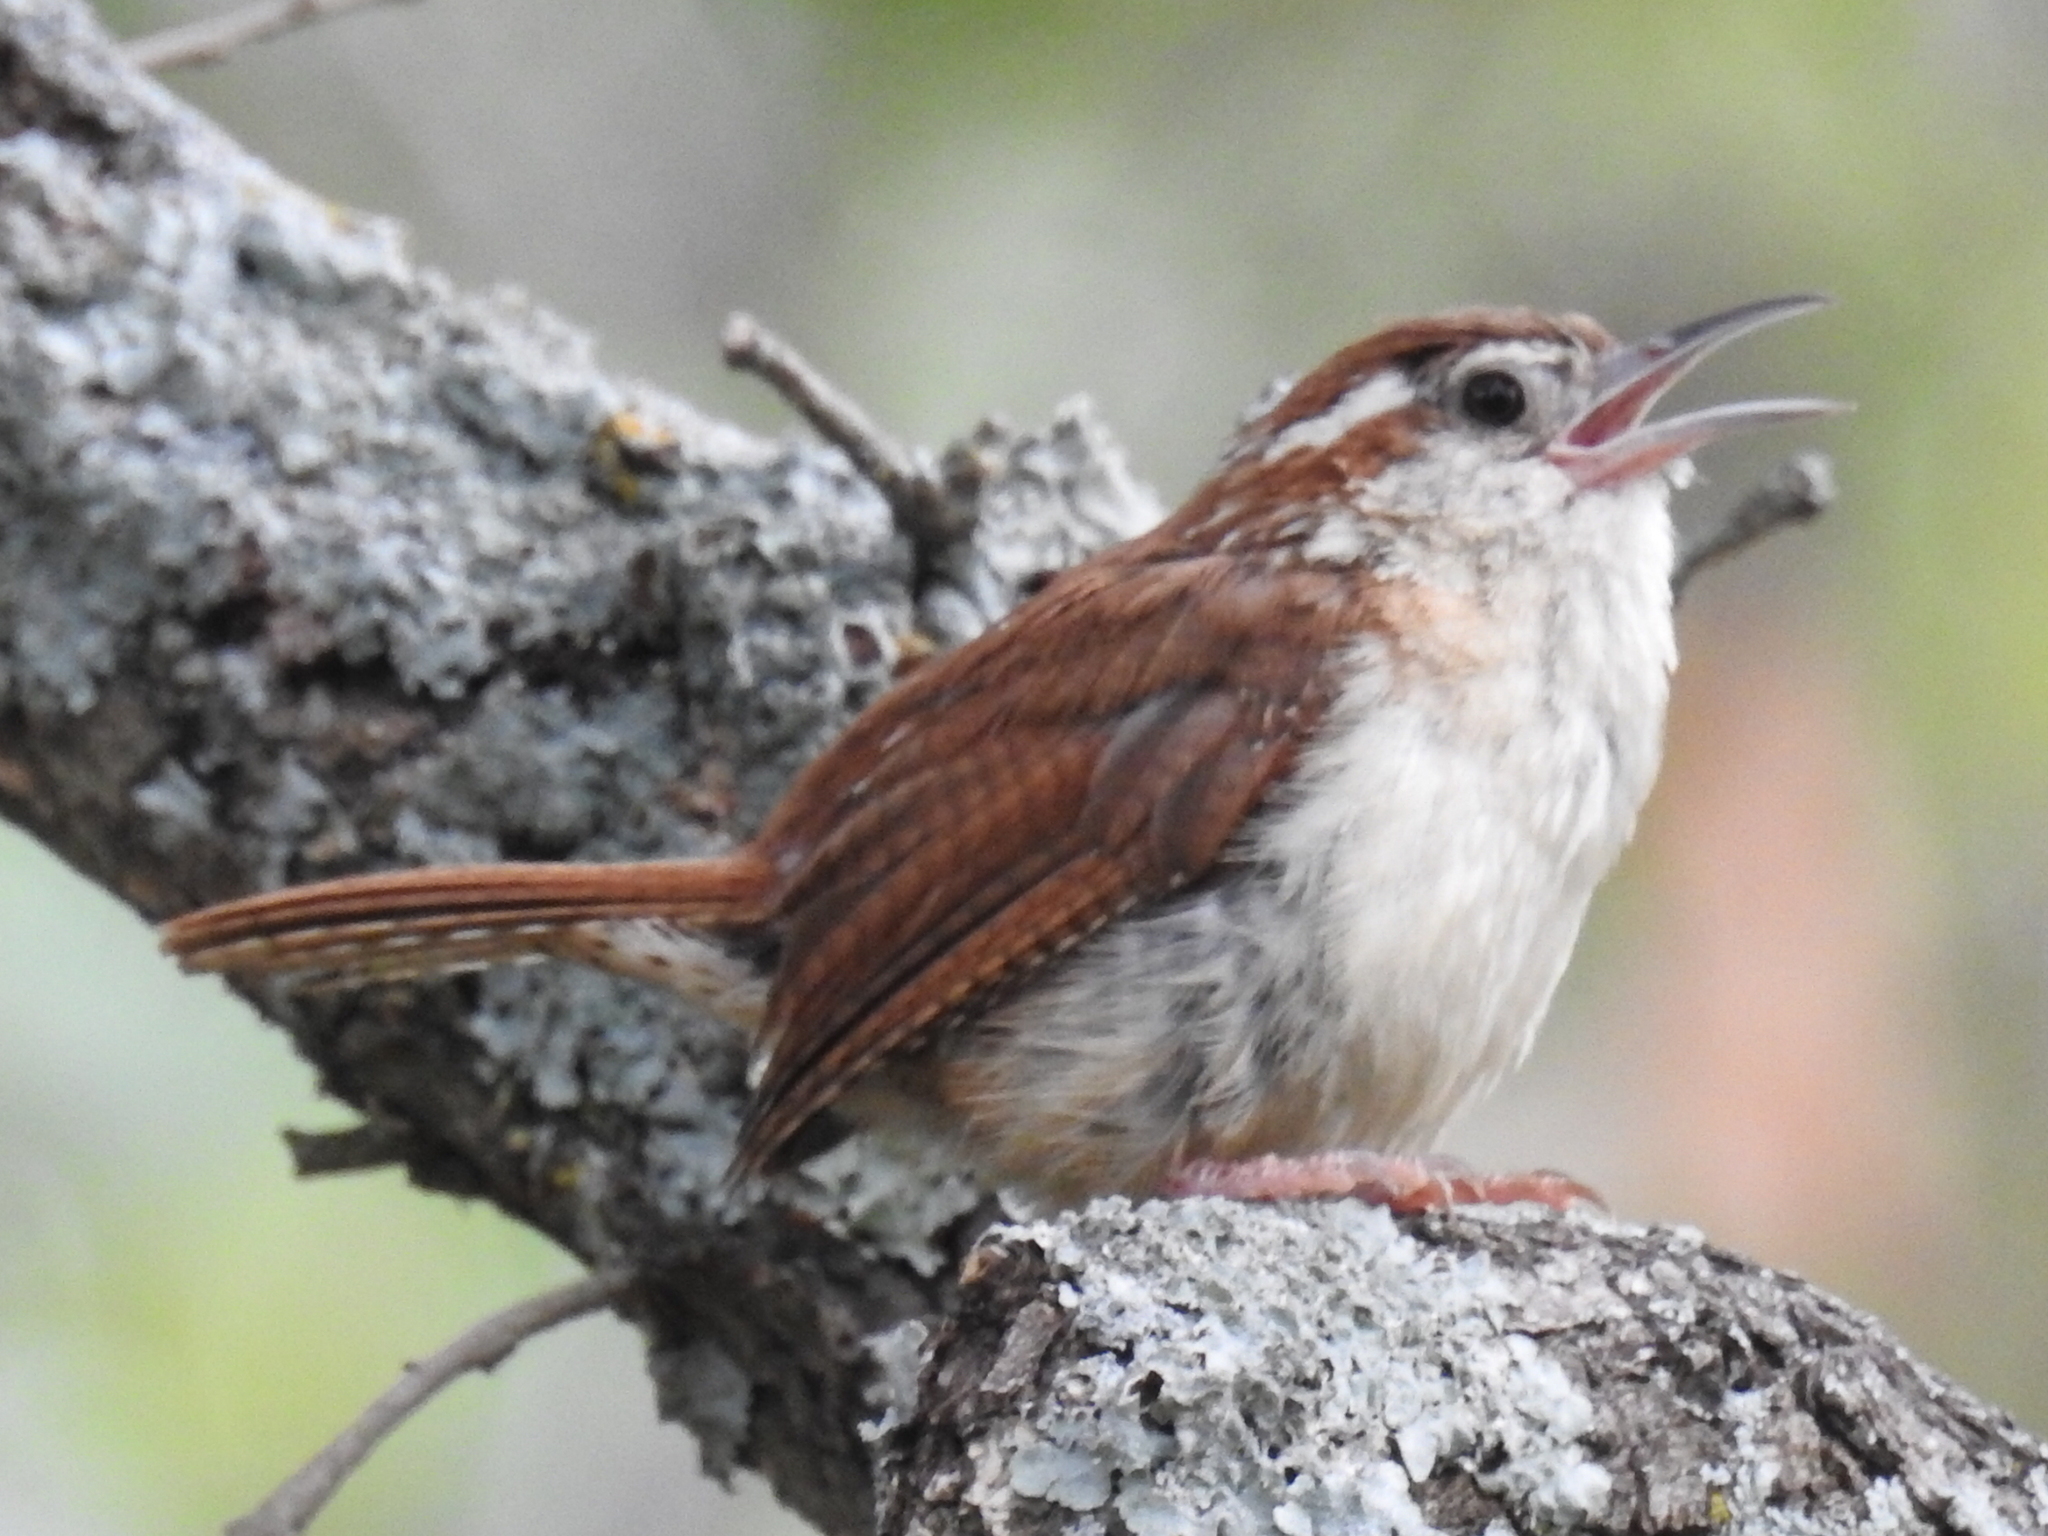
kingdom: Animalia
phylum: Chordata
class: Aves
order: Passeriformes
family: Troglodytidae
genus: Thryothorus
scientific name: Thryothorus ludovicianus
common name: Carolina wren
